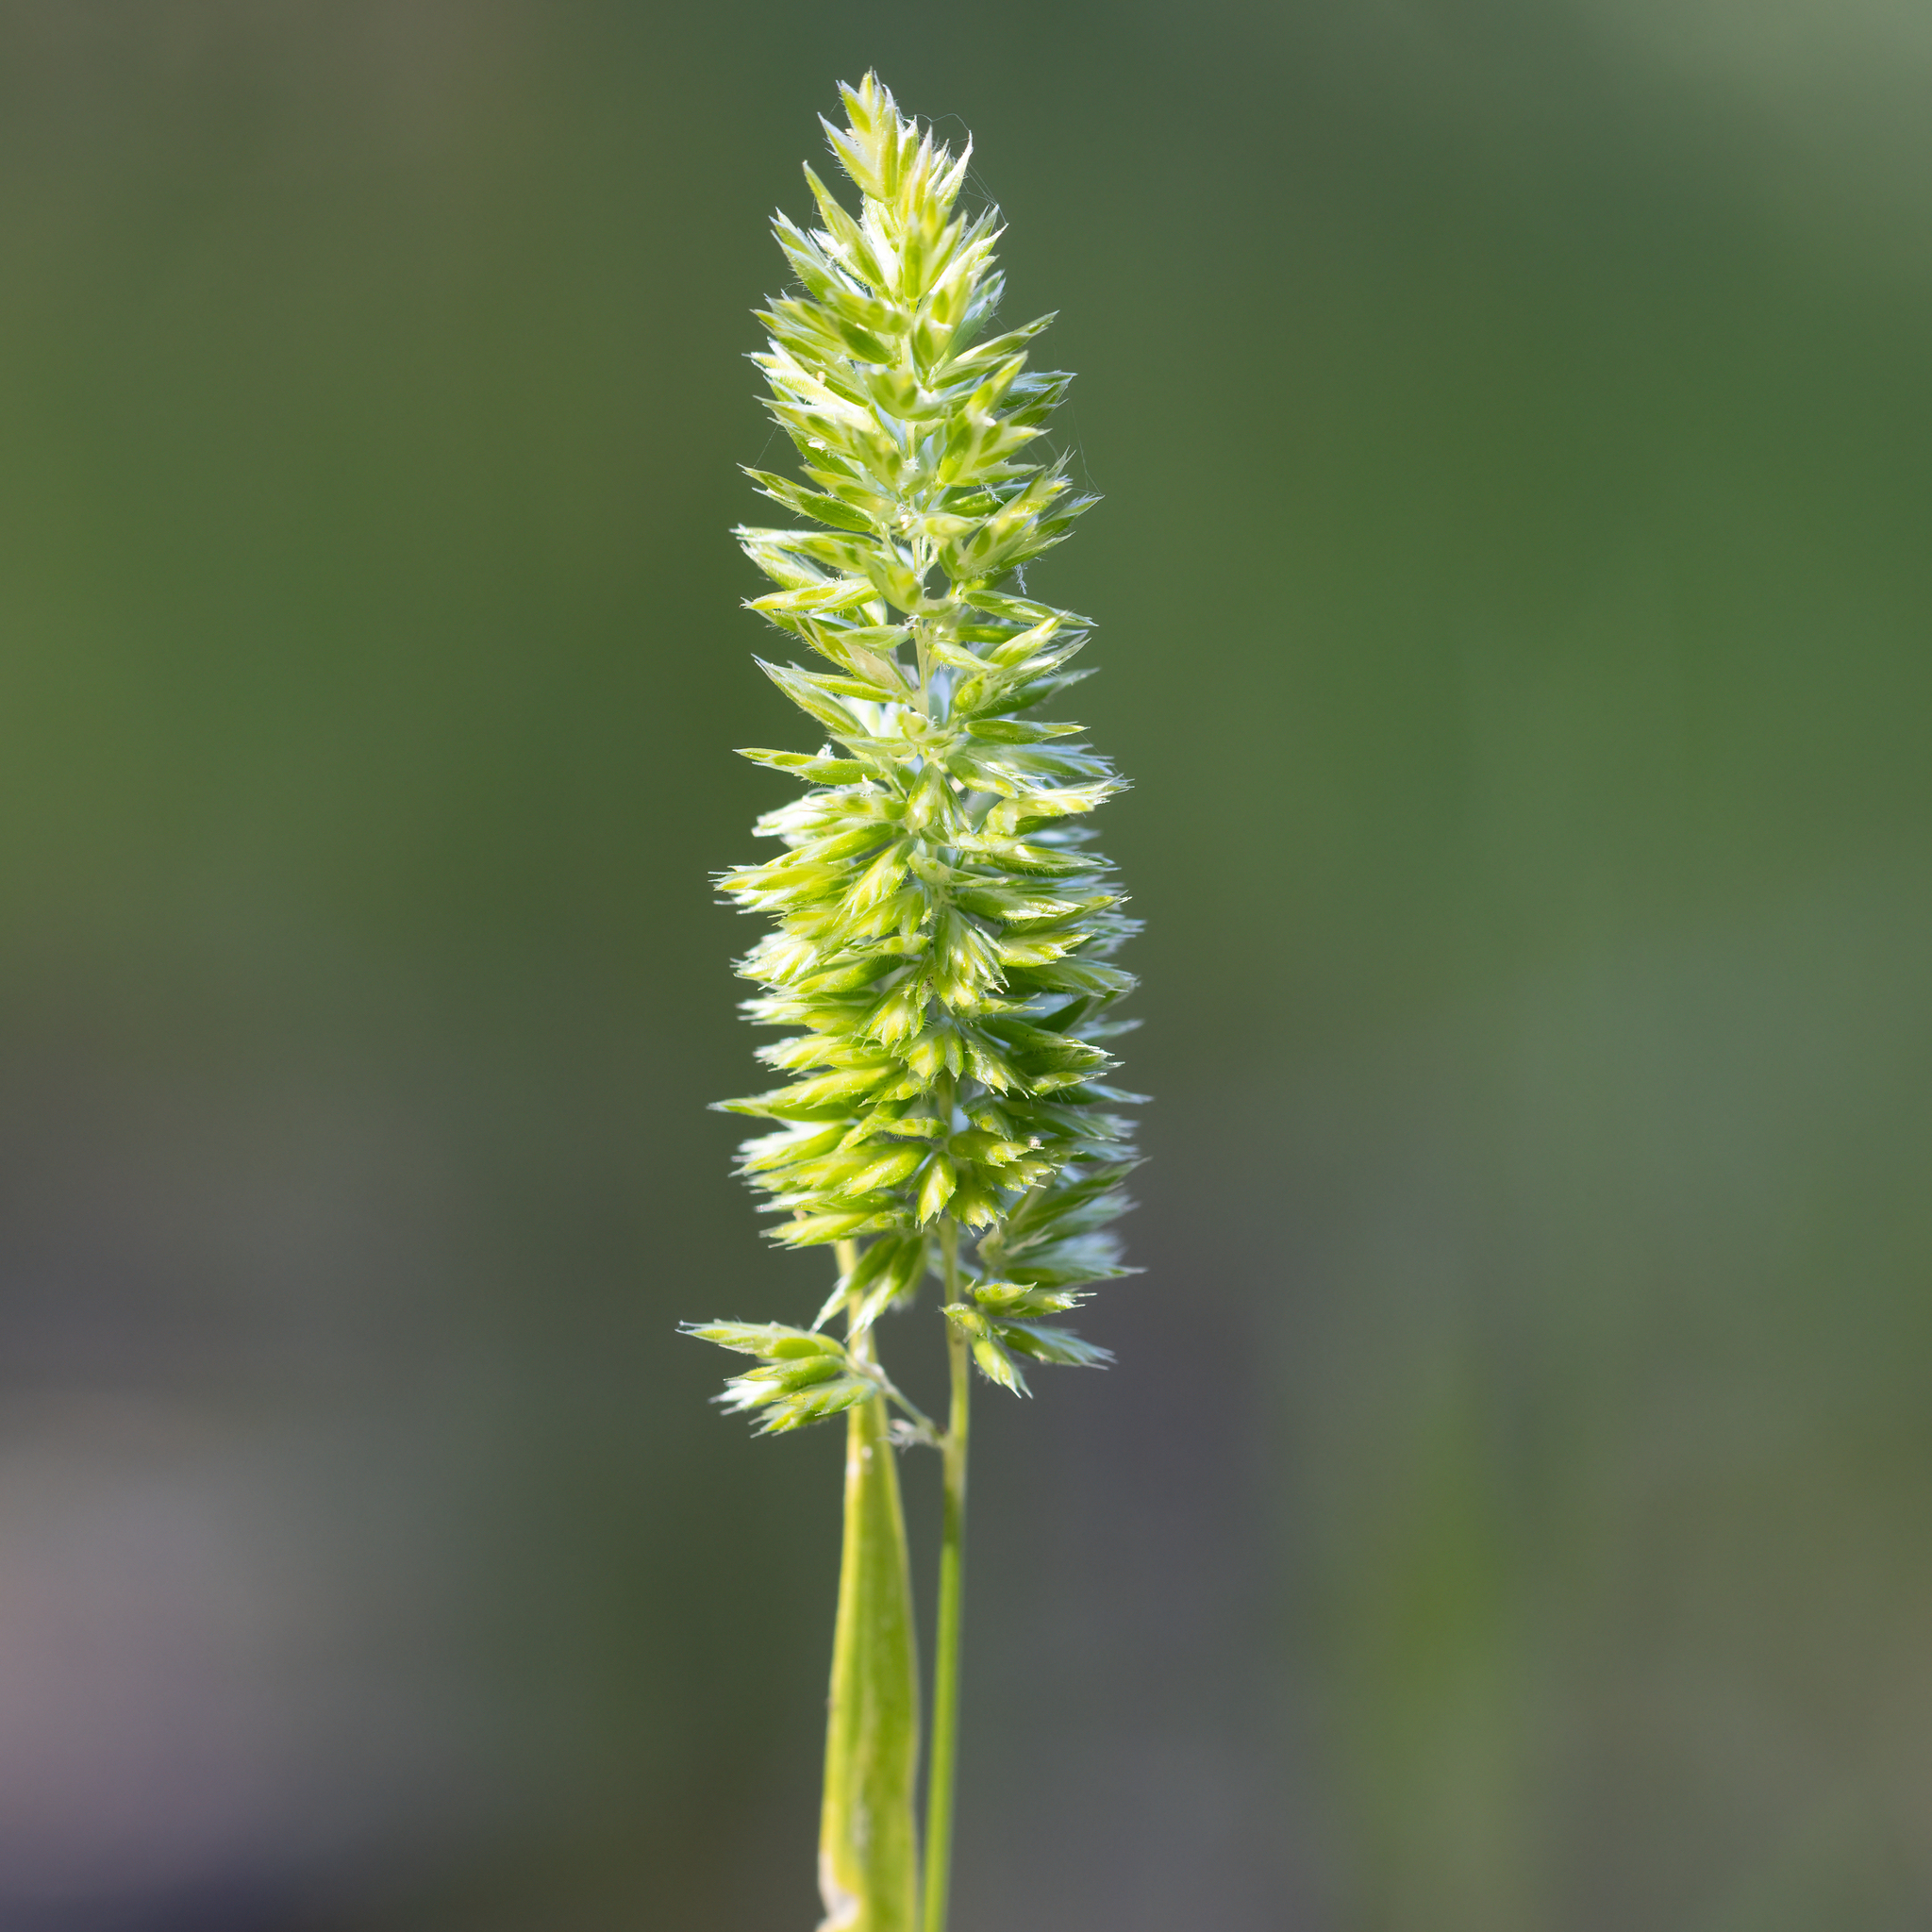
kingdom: Plantae
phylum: Tracheophyta
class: Liliopsida
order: Poales
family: Poaceae
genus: Rostraria
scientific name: Rostraria cristata
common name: Mediterranean hair-grass
